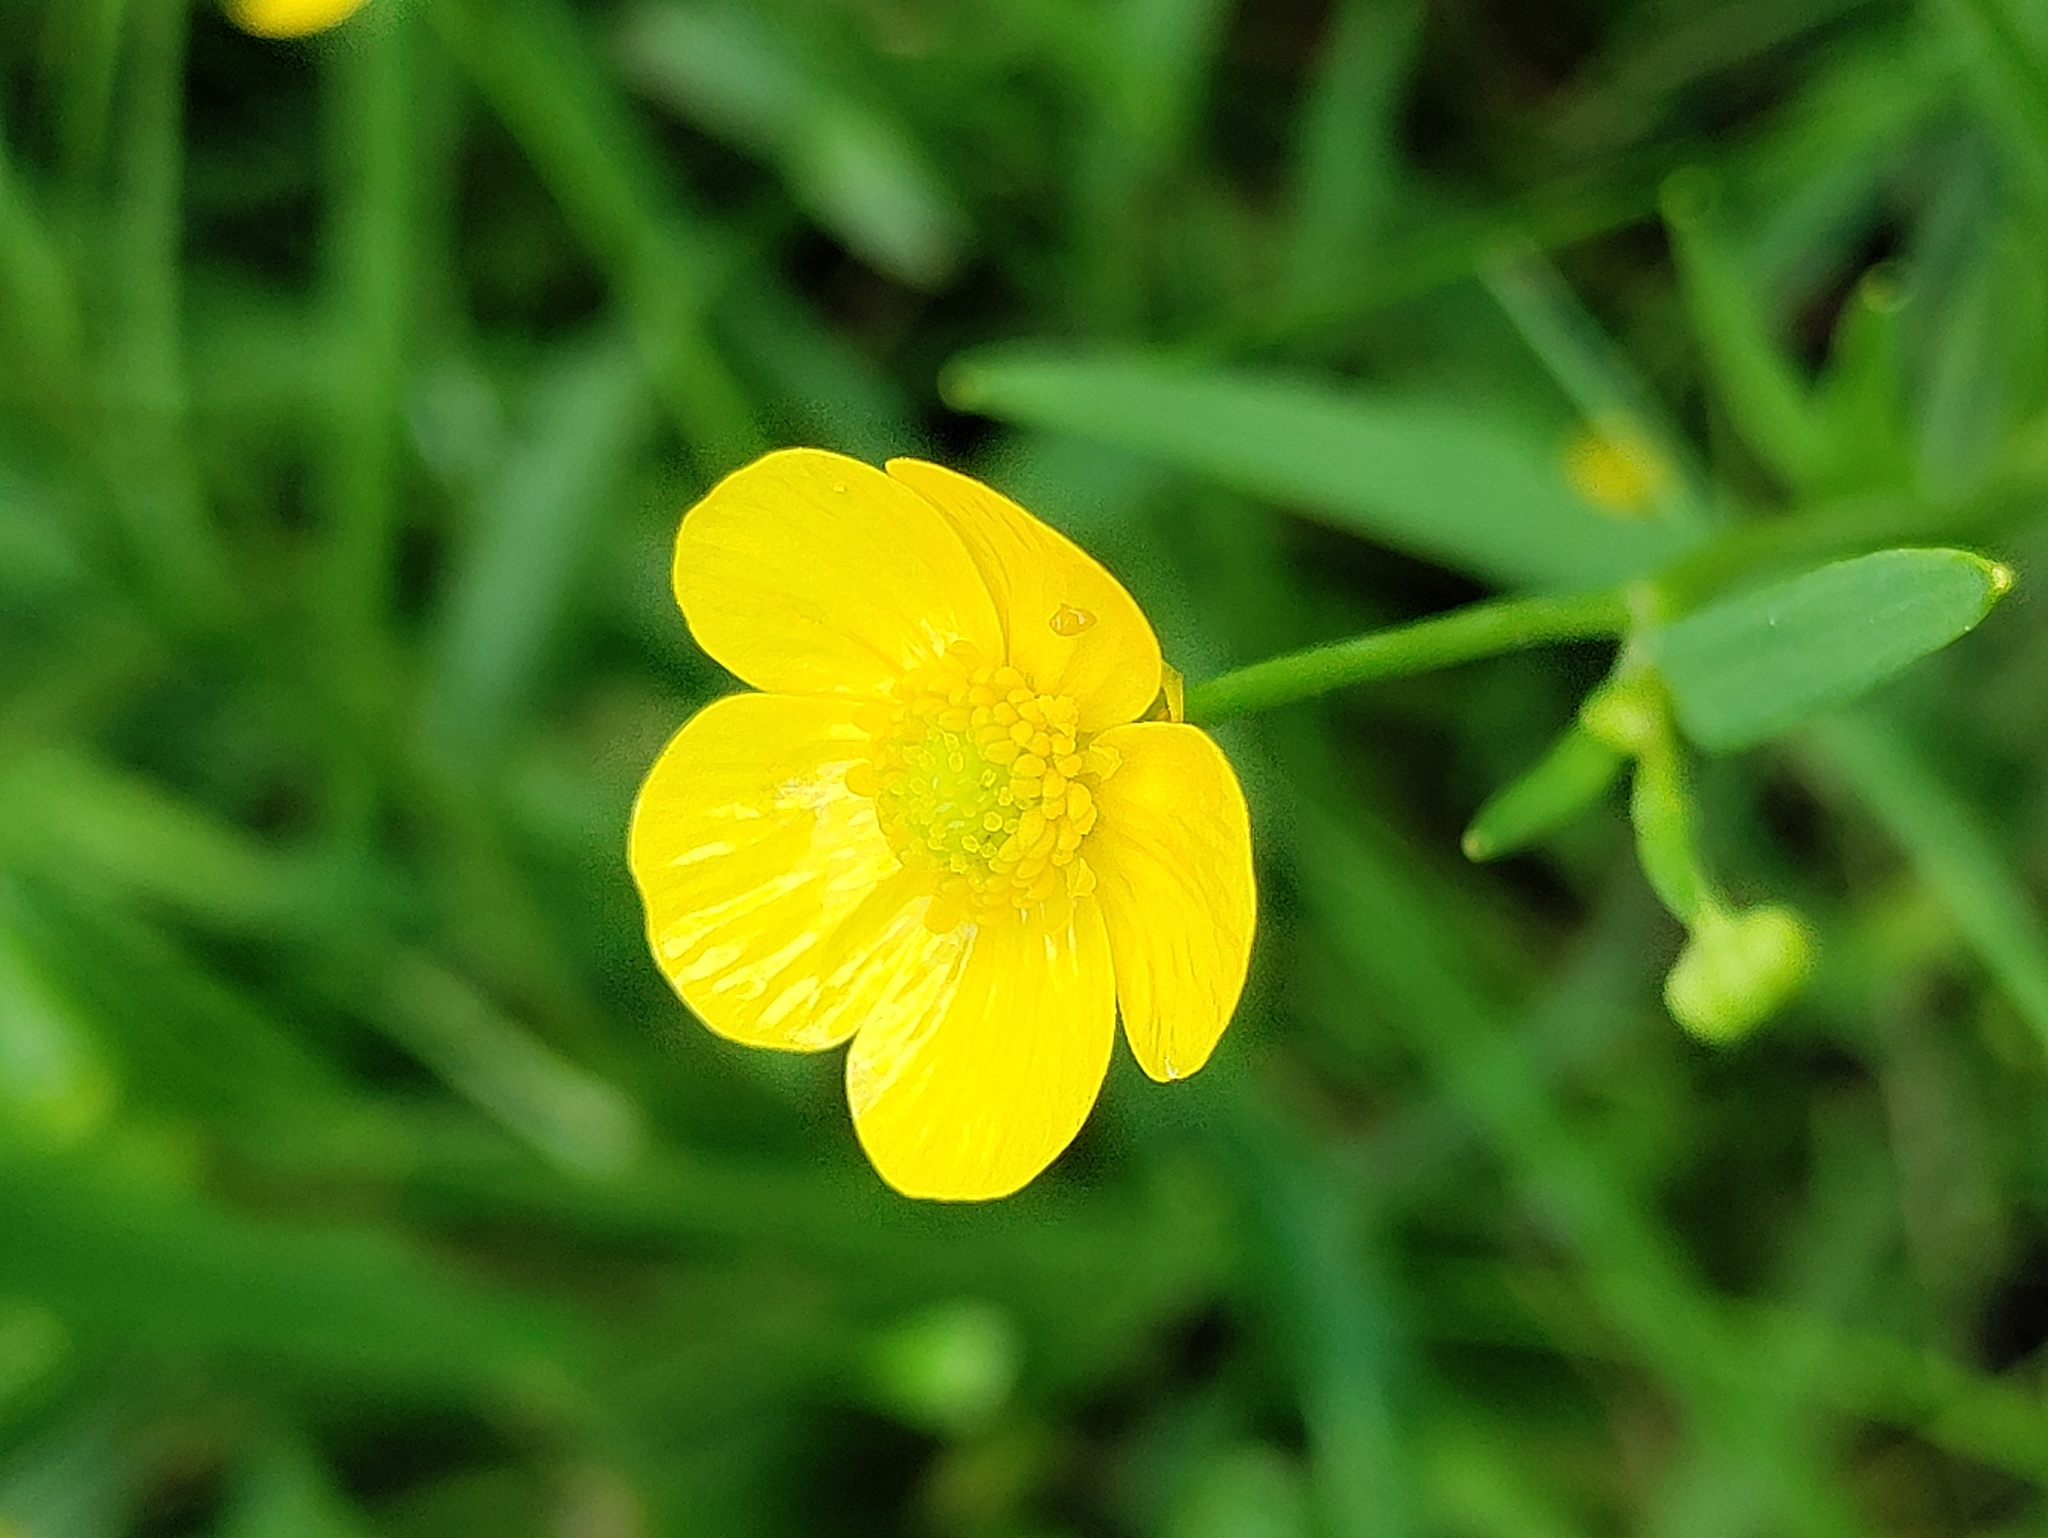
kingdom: Plantae
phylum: Tracheophyta
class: Magnoliopsida
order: Ranunculales
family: Ranunculaceae
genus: Ranunculus
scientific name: Ranunculus flammula
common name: Lesser spearwort
